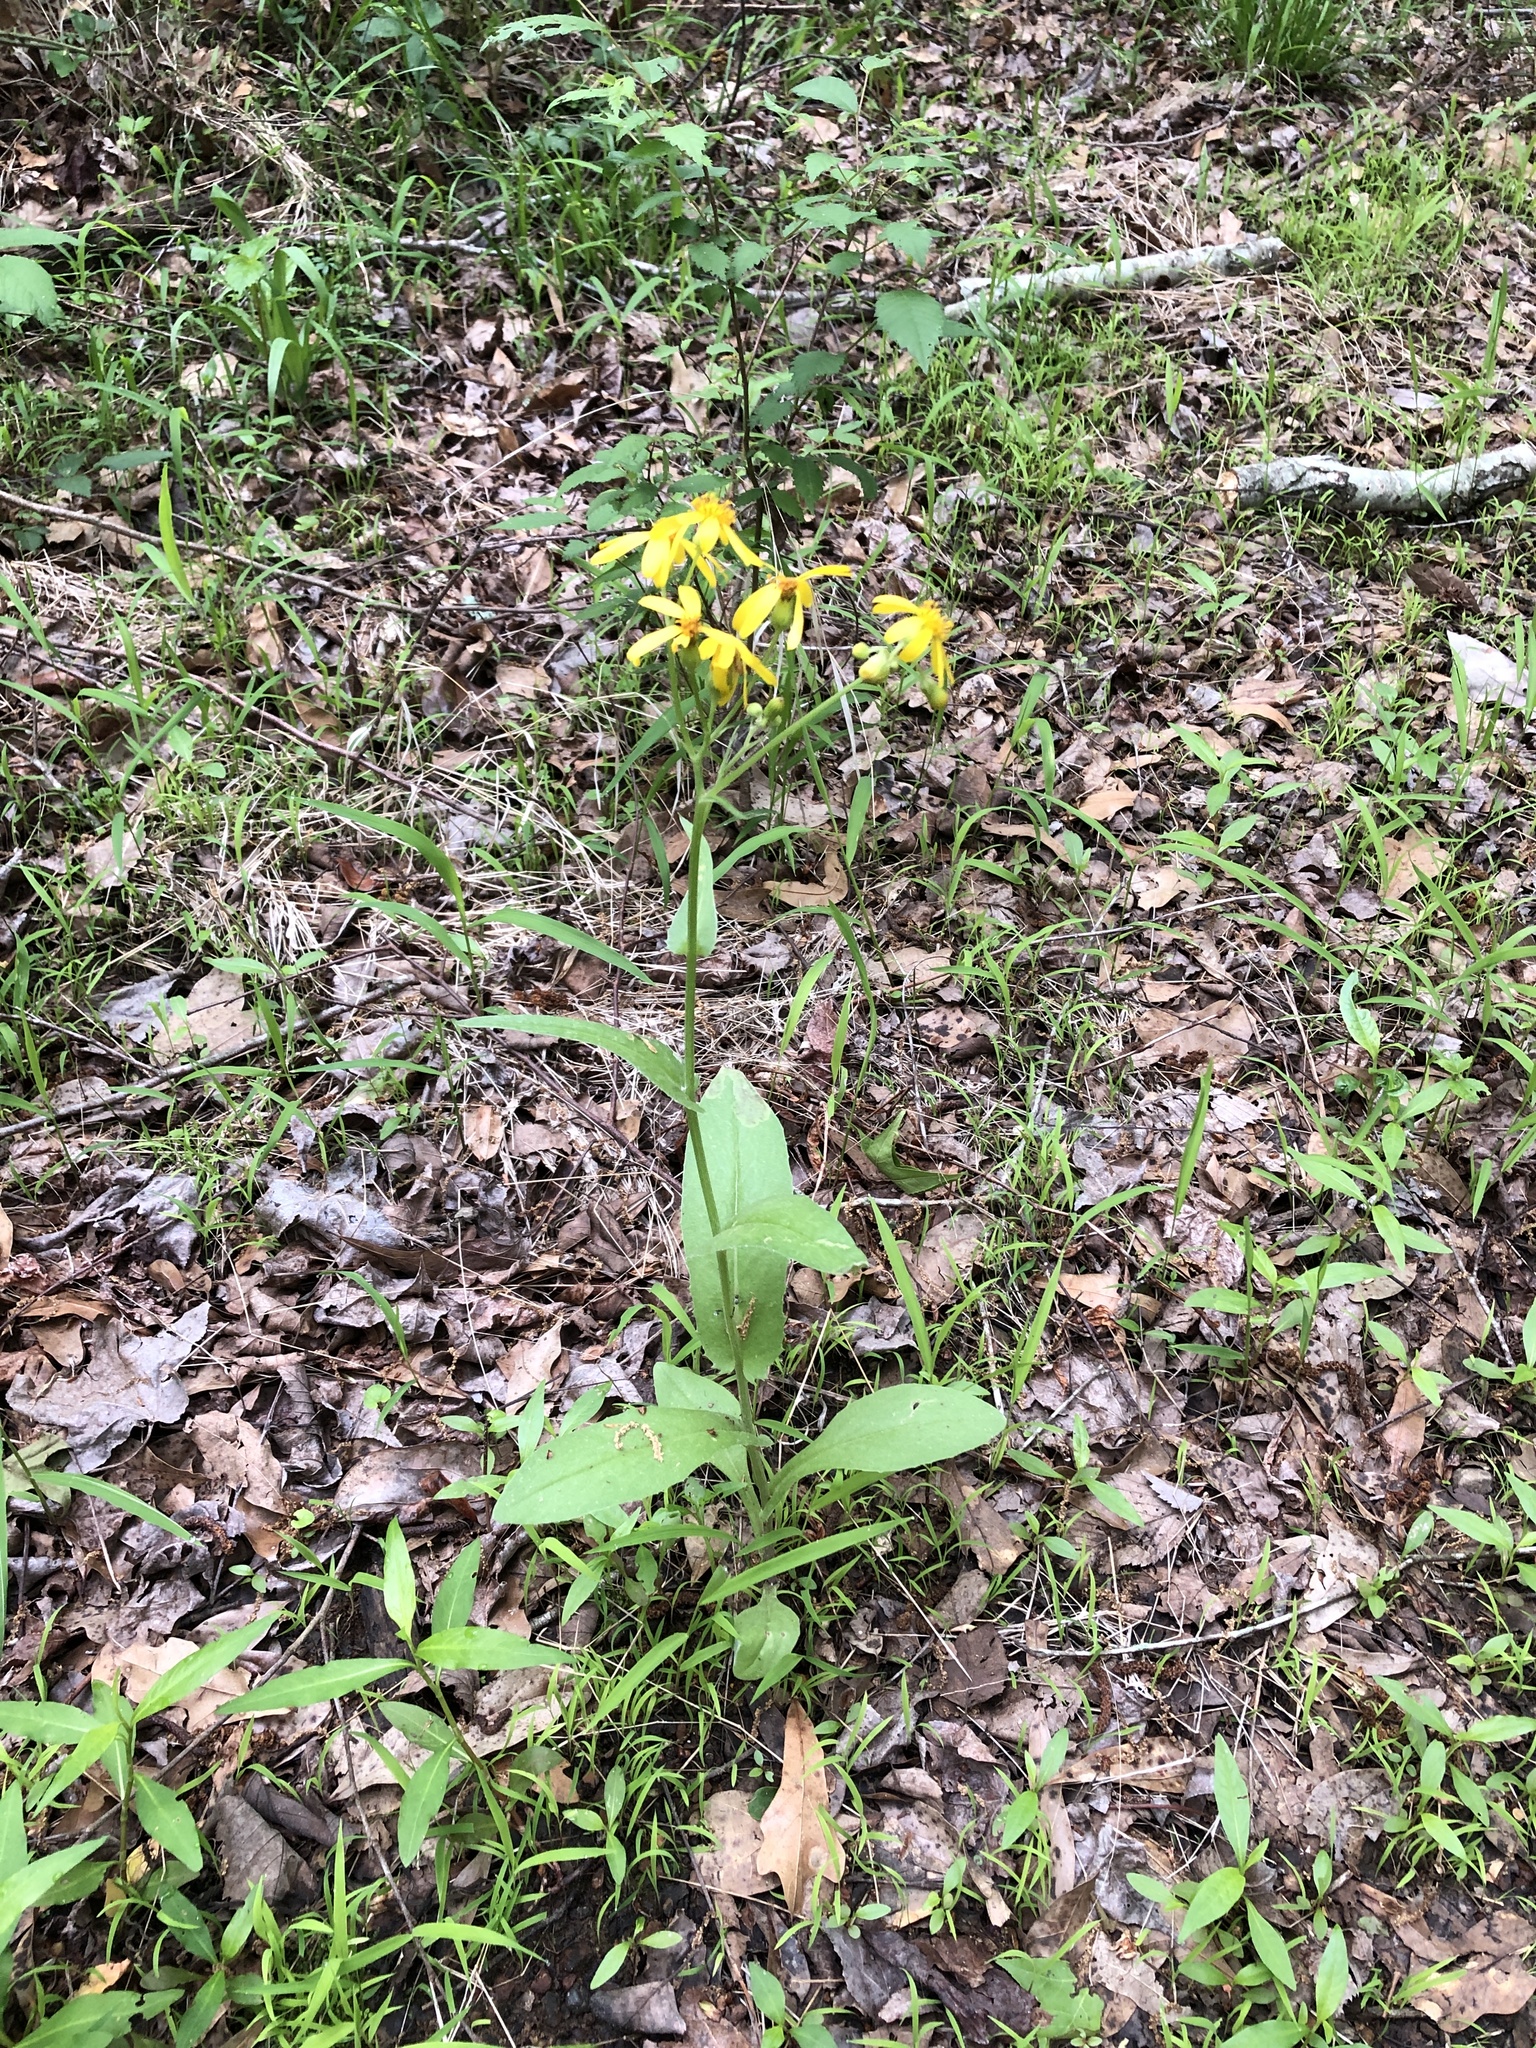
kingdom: Plantae
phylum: Tracheophyta
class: Magnoliopsida
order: Asterales
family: Asteraceae
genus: Senecio
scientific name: Senecio ampullaceus
